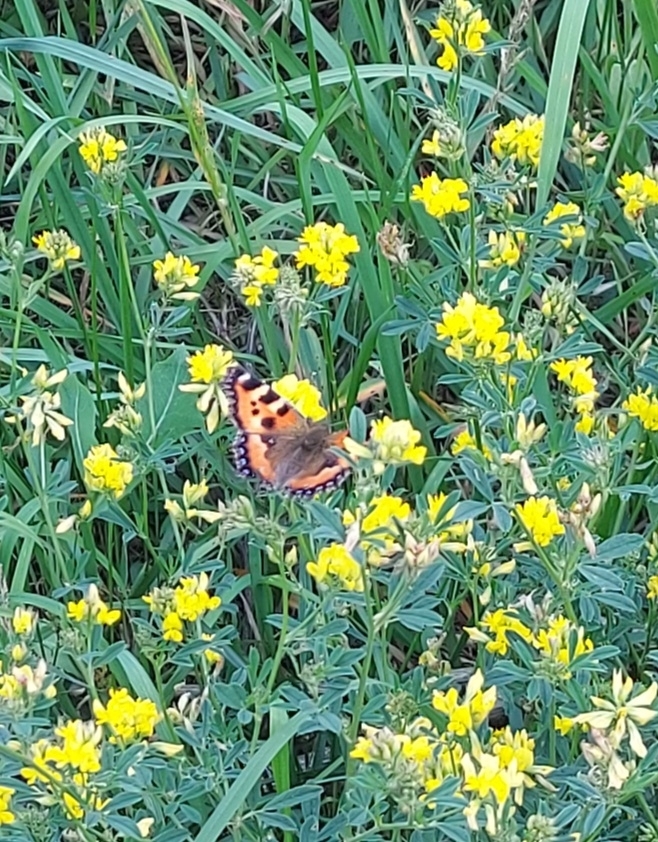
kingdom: Animalia
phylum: Arthropoda
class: Insecta
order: Lepidoptera
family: Nymphalidae
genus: Aglais
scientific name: Aglais urticae
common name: Small tortoiseshell
